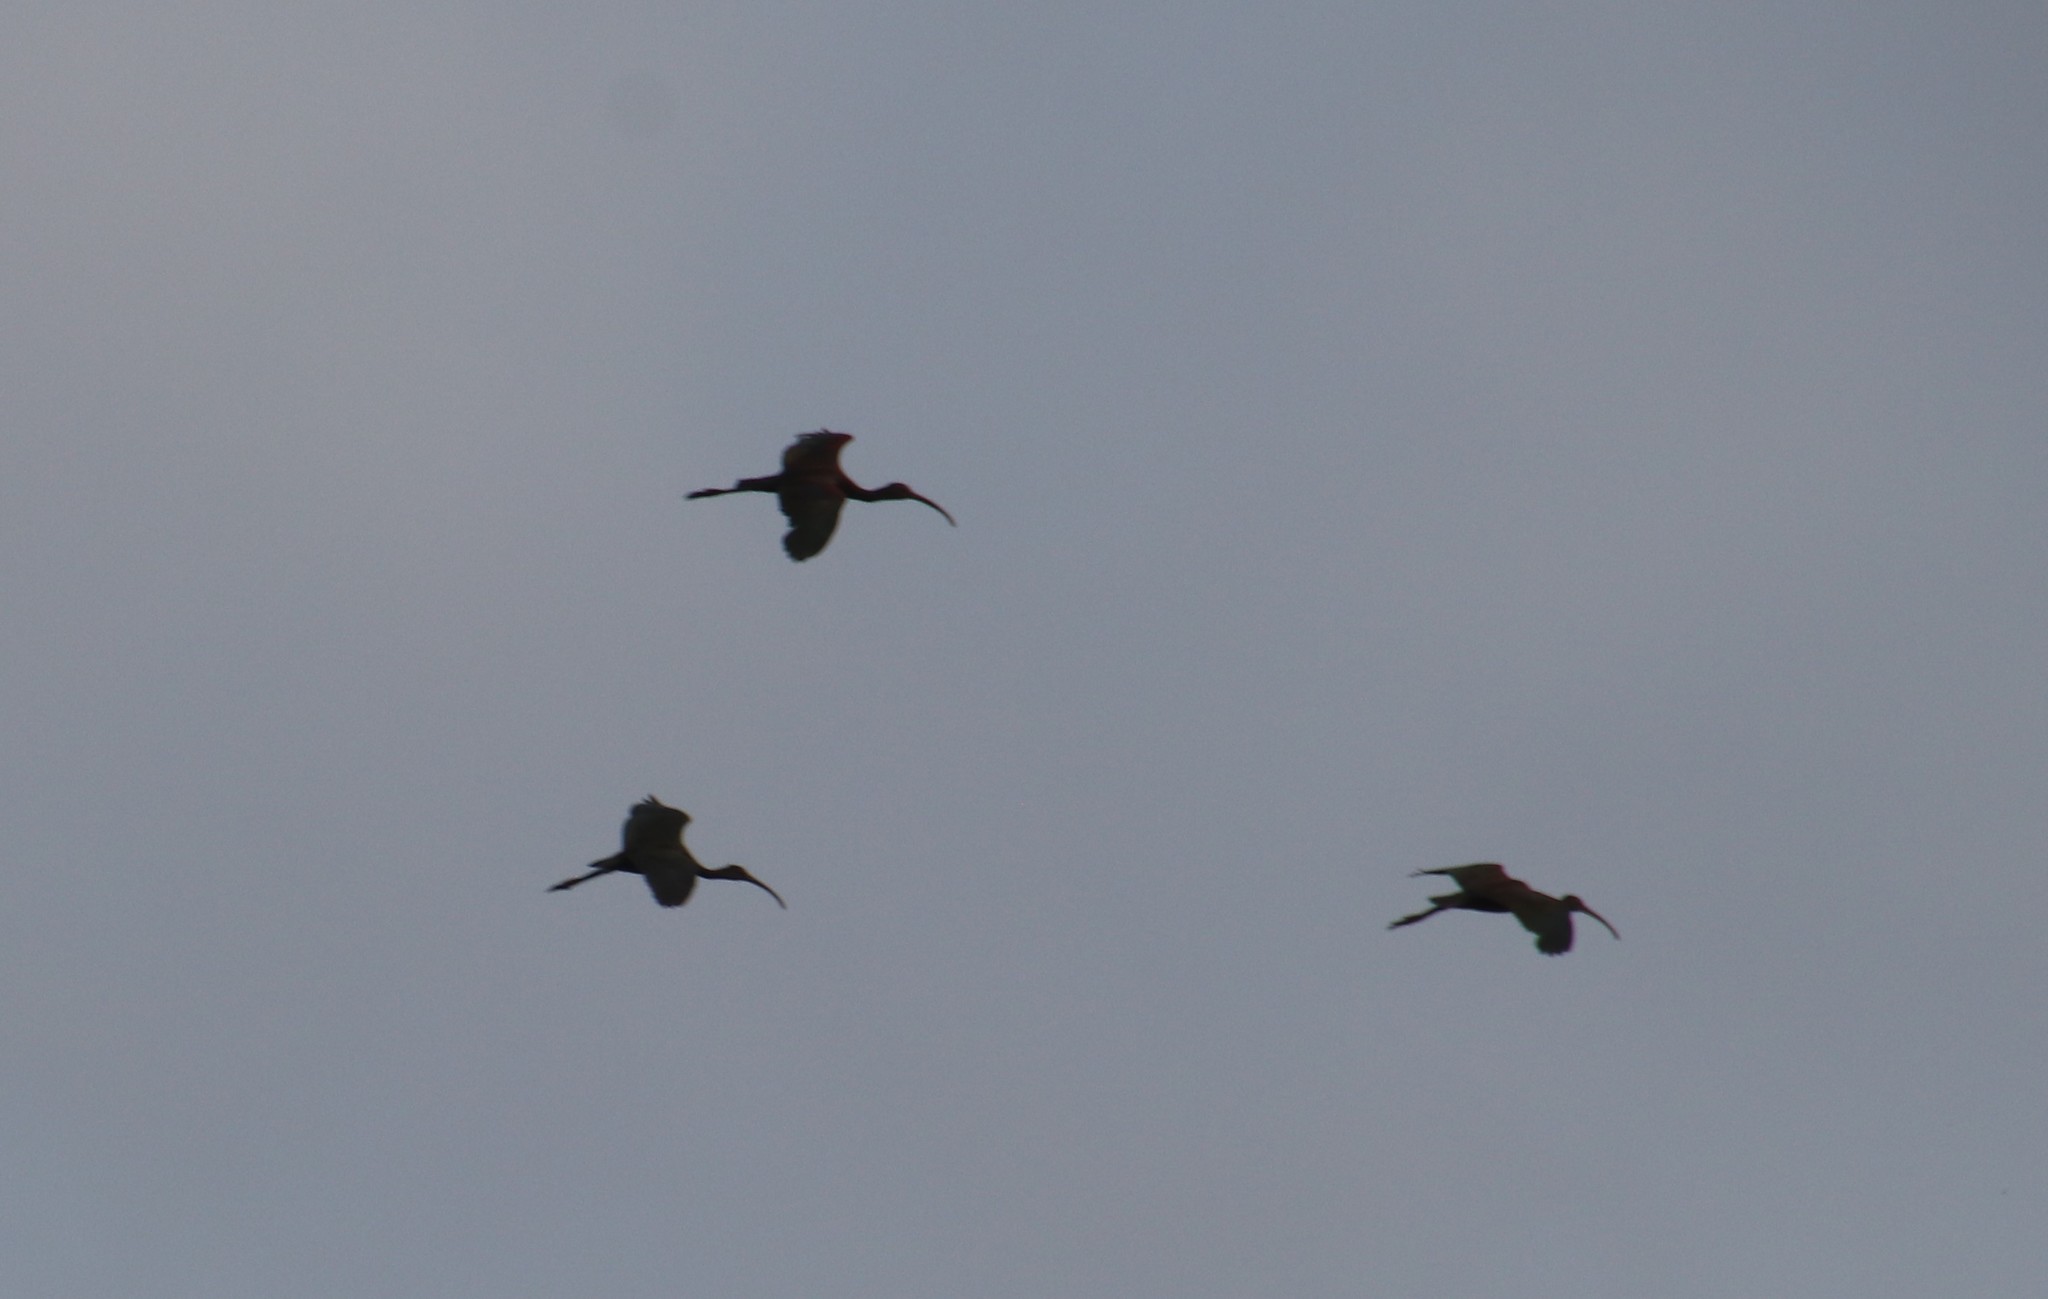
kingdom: Animalia
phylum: Chordata
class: Aves
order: Pelecaniformes
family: Threskiornithidae
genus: Plegadis
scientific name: Plegadis chihi
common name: White-faced ibis
